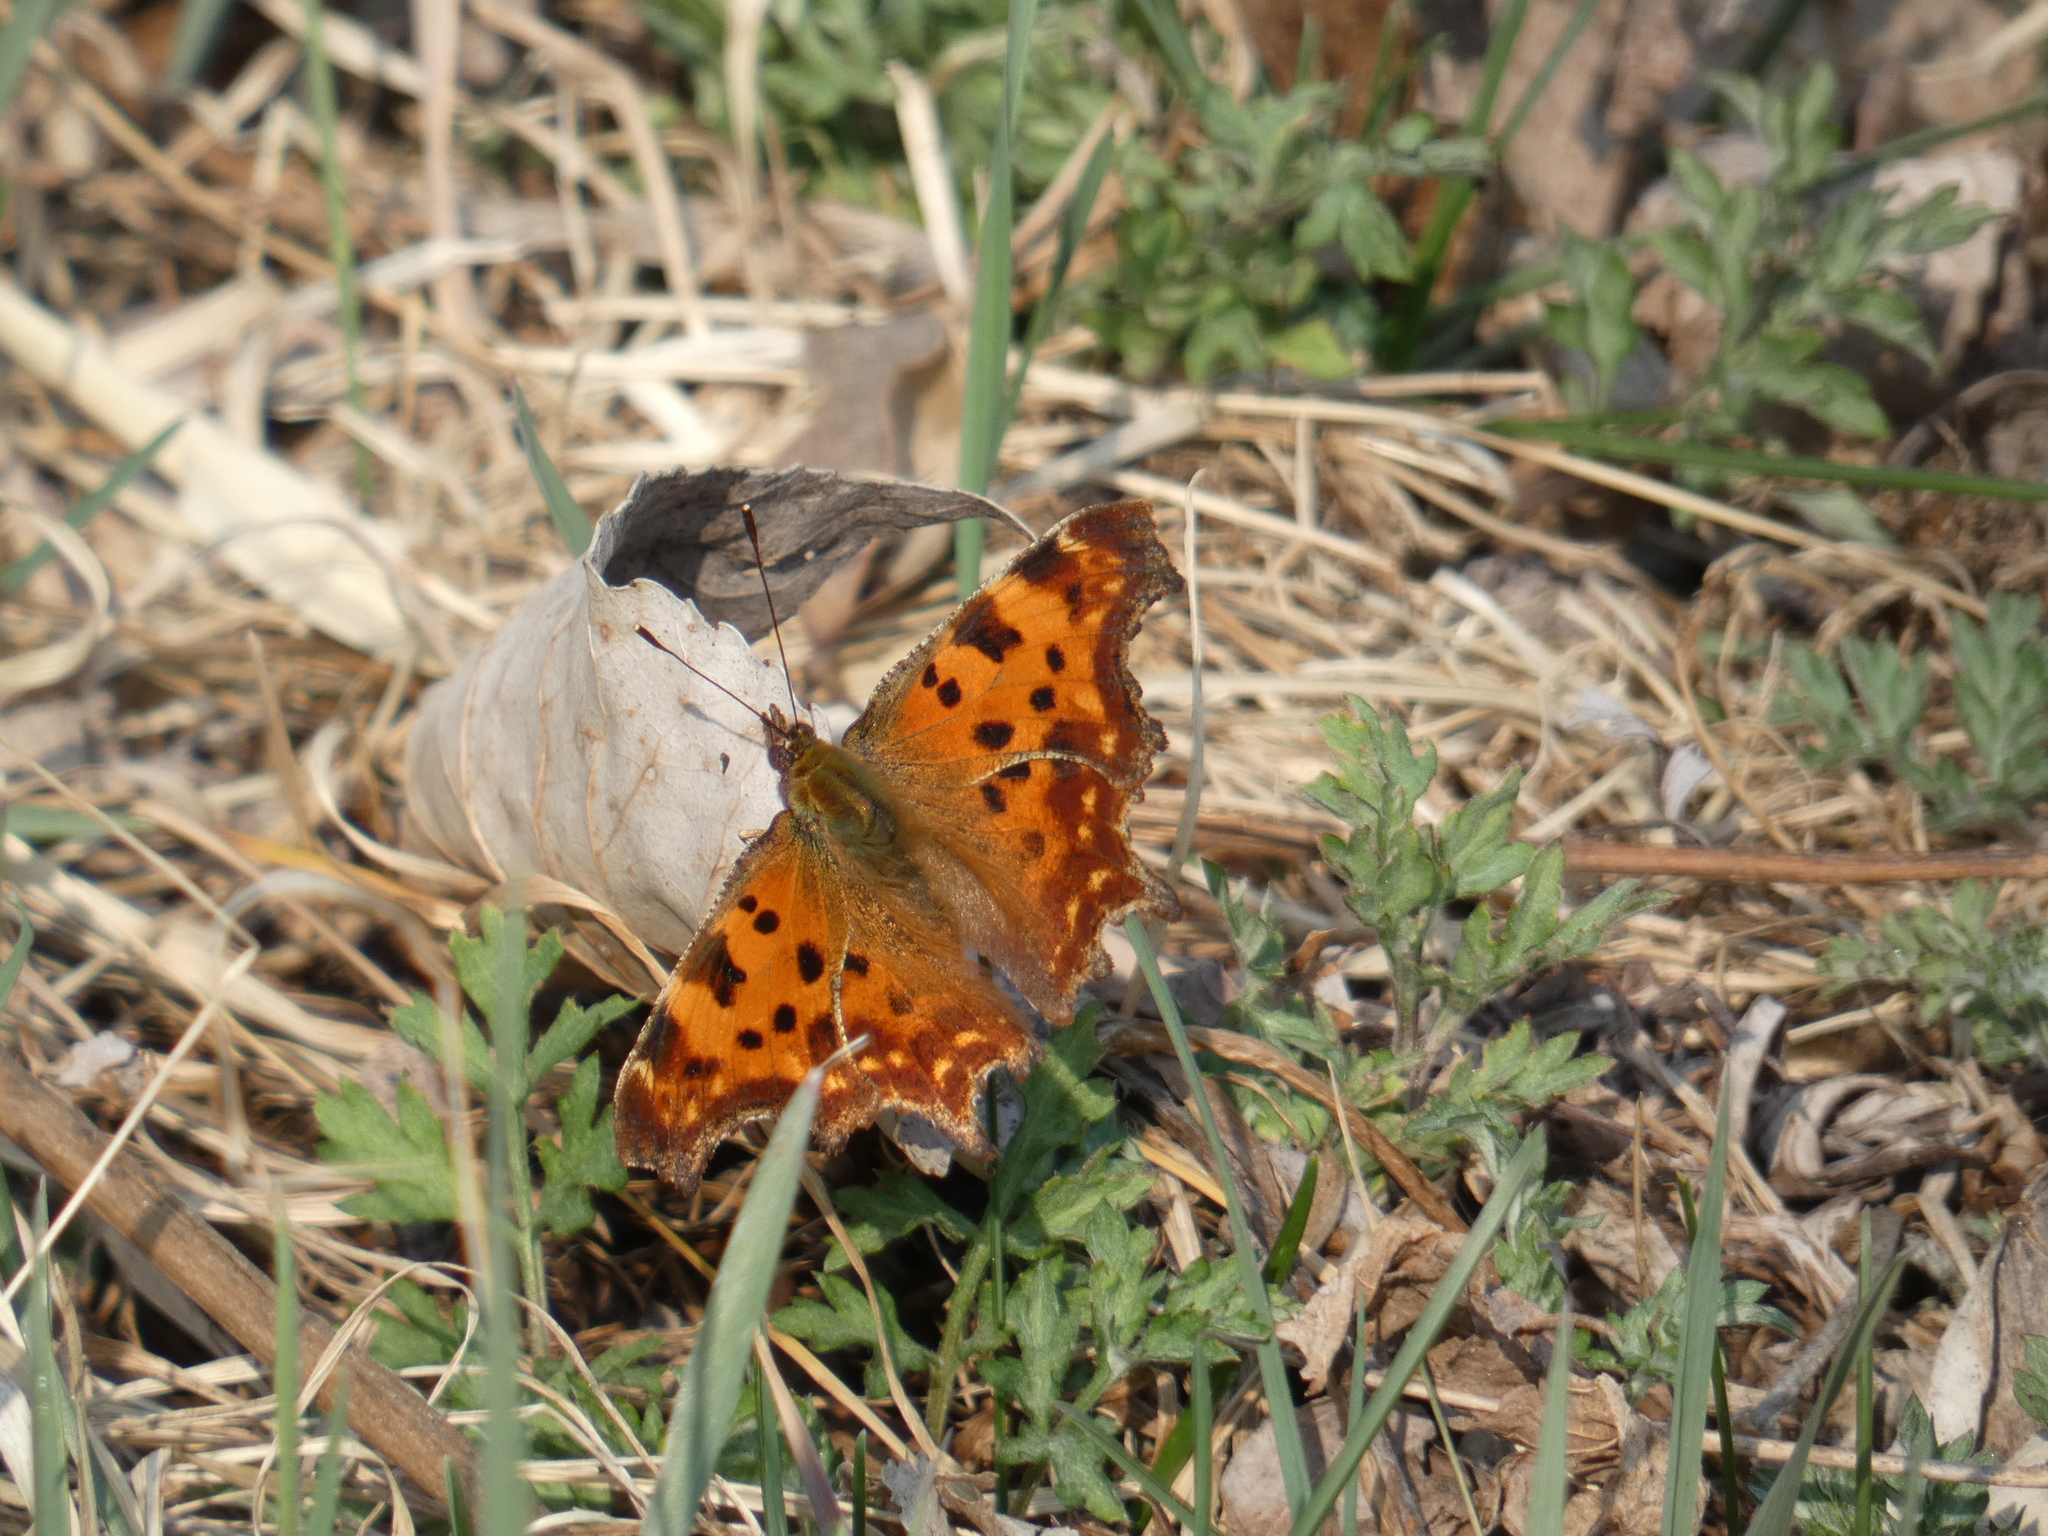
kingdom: Animalia
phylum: Arthropoda
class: Insecta
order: Lepidoptera
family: Nymphalidae
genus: Polygonia
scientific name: Polygonia c-album
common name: Comma
